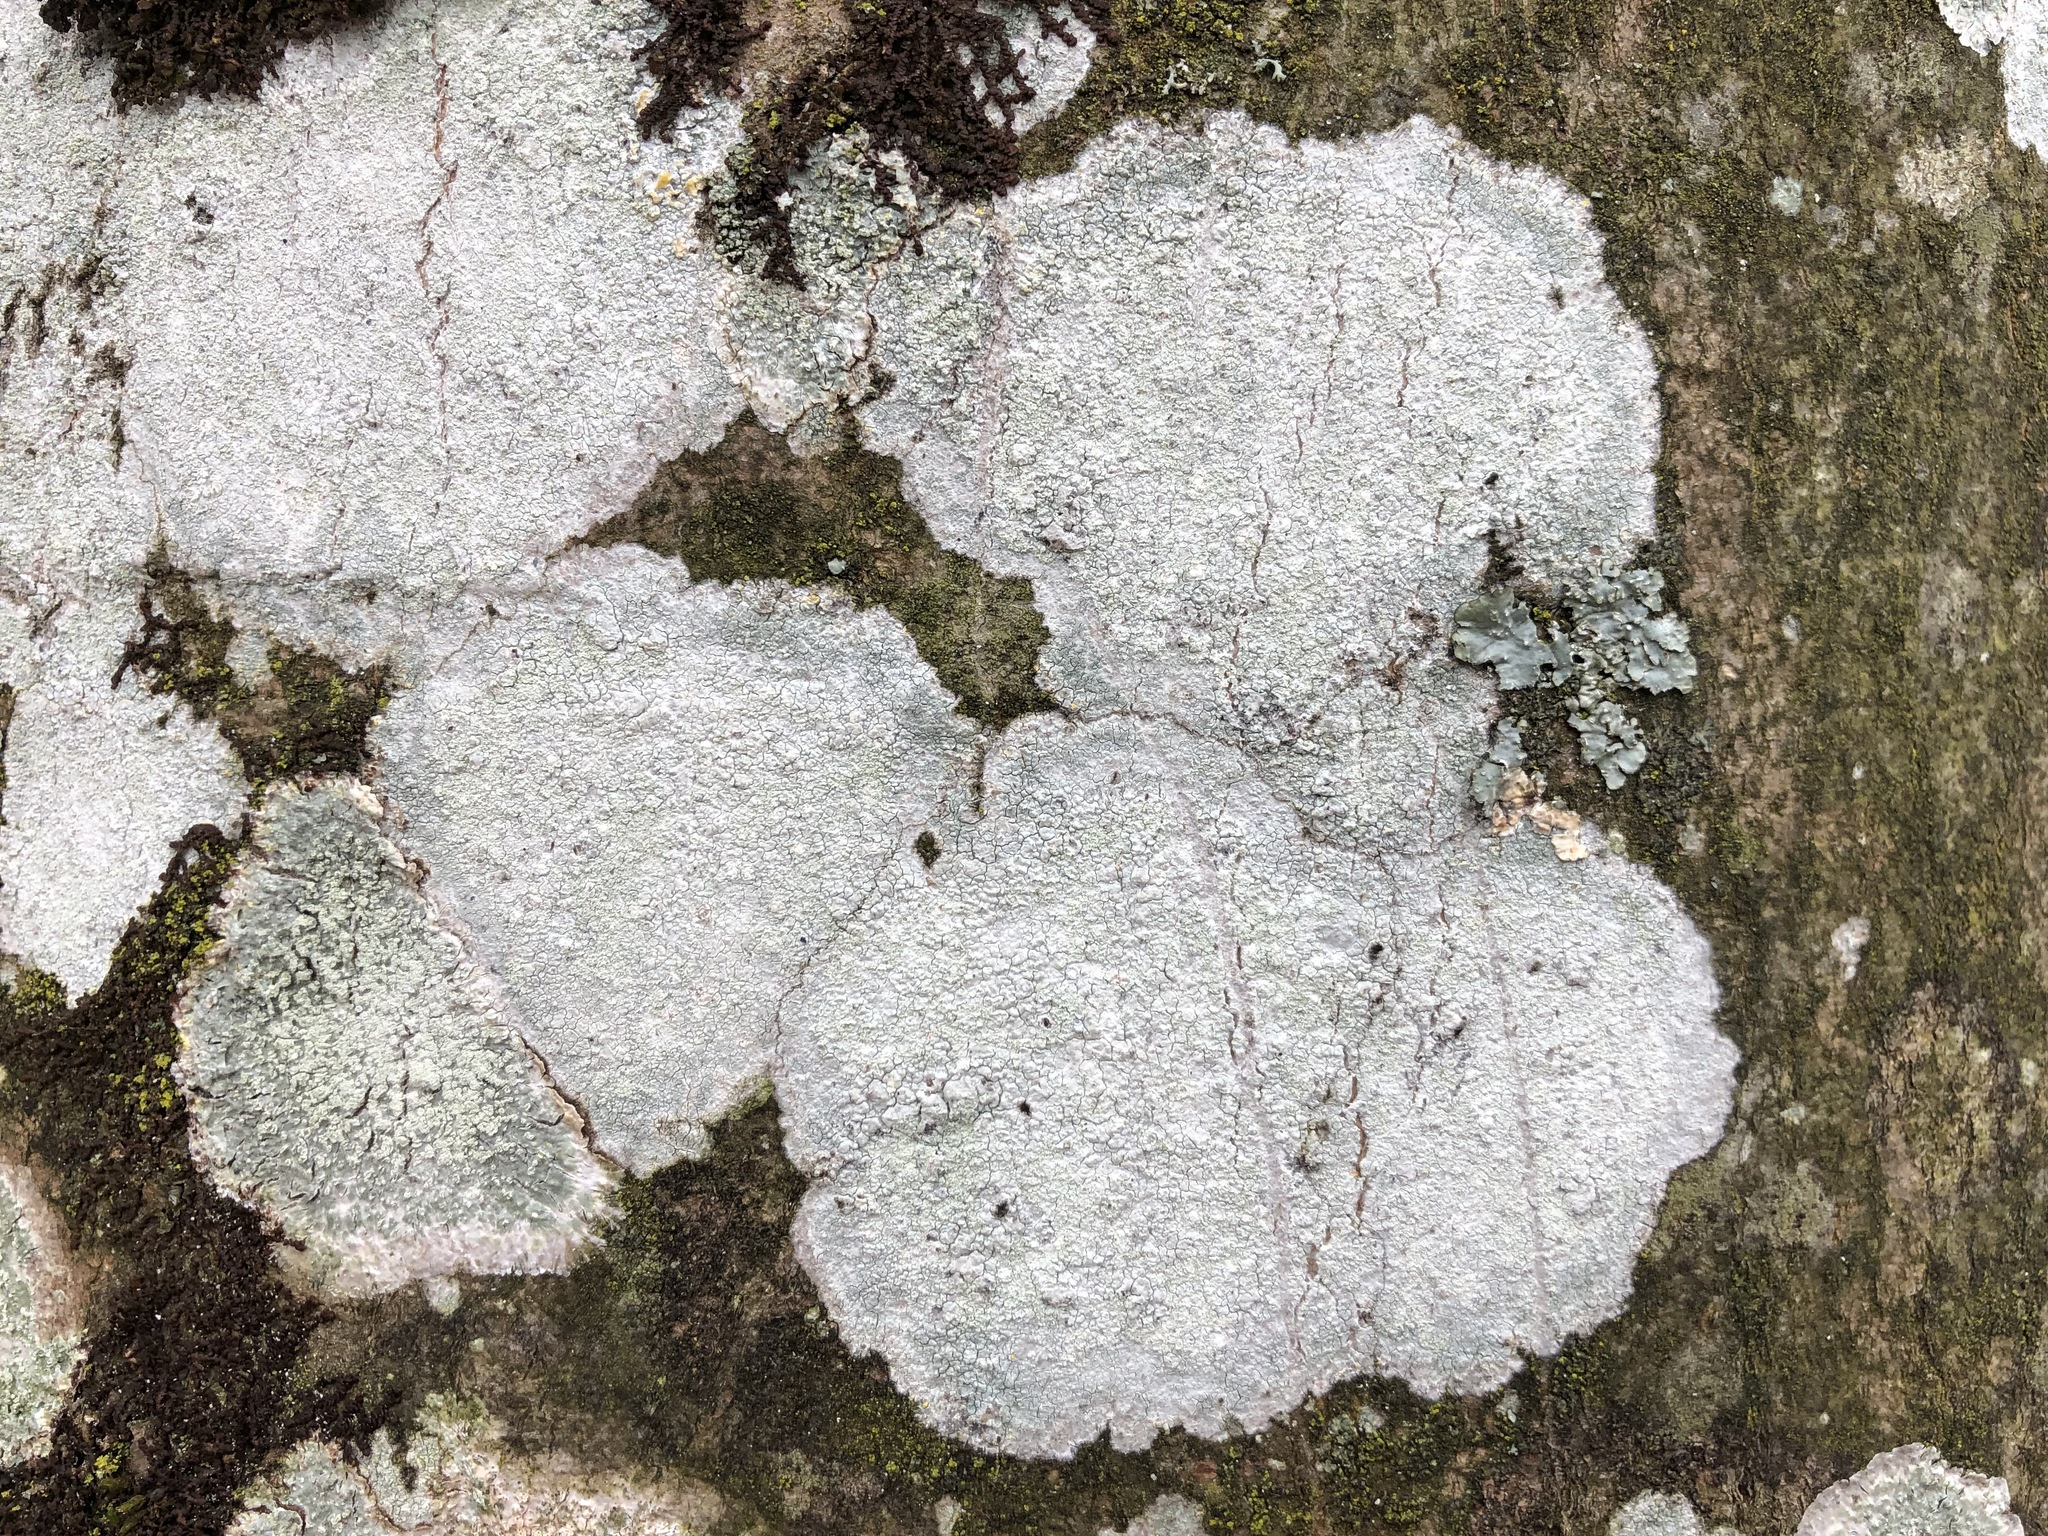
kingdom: Fungi
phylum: Ascomycota
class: Lecanoromycetes
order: Ostropales
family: Phlyctidaceae
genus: Phlyctis
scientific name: Phlyctis argena
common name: Whitewash lichen
